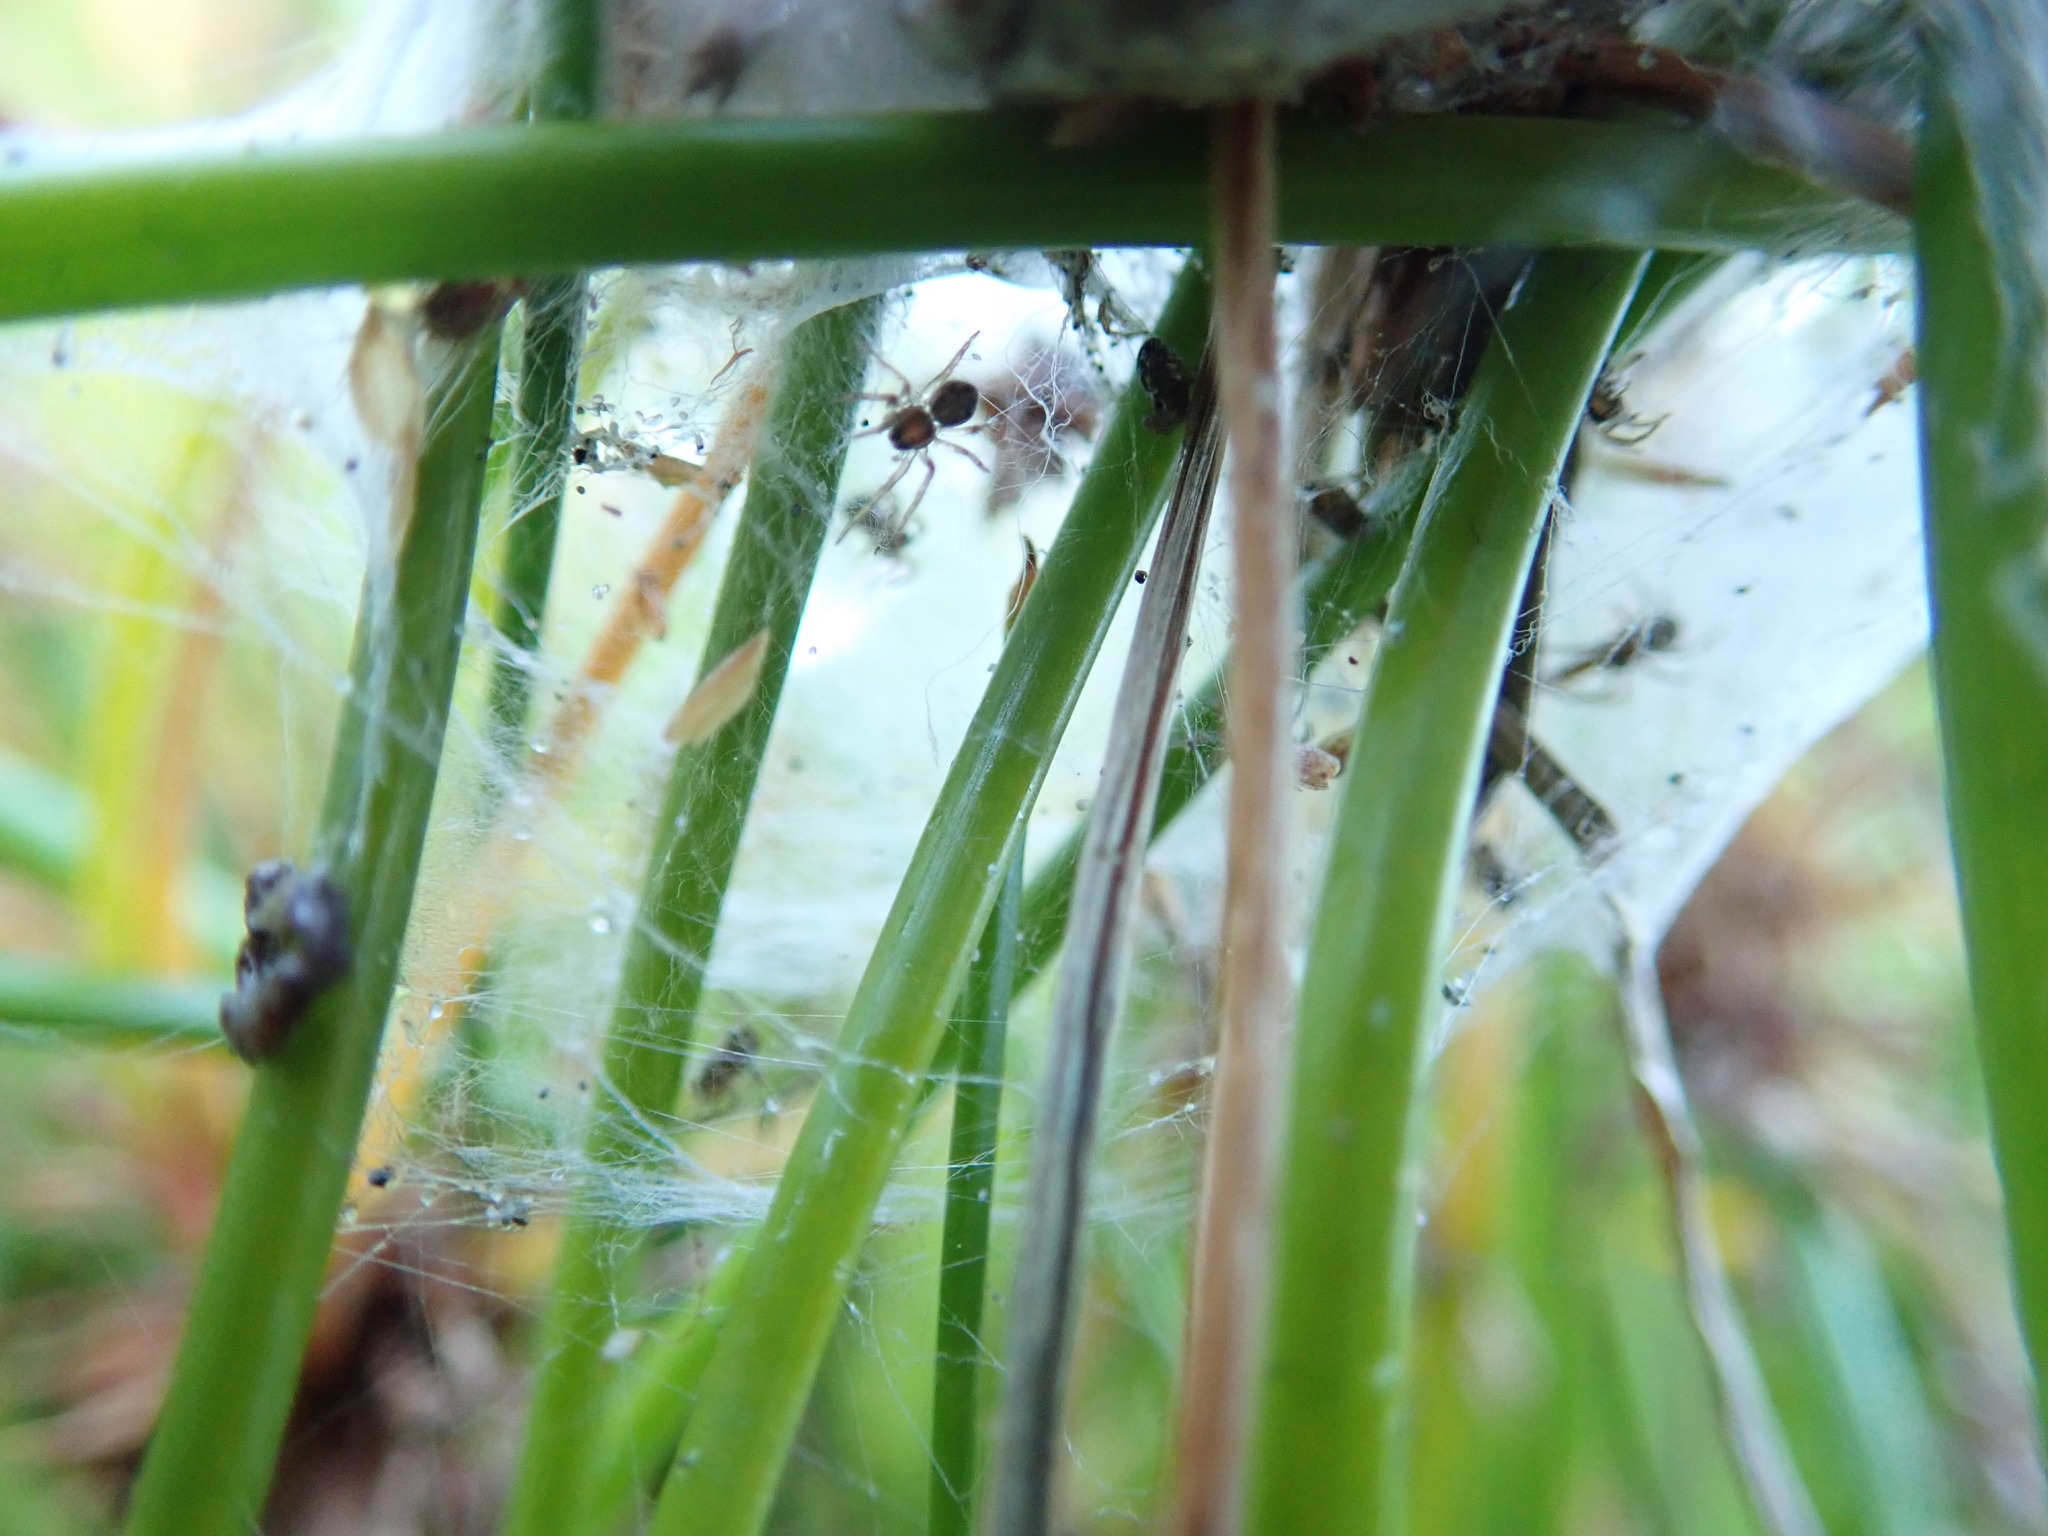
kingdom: Animalia
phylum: Arthropoda
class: Arachnida
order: Araneae
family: Pisauridae
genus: Dolomedes
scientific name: Dolomedes minor
